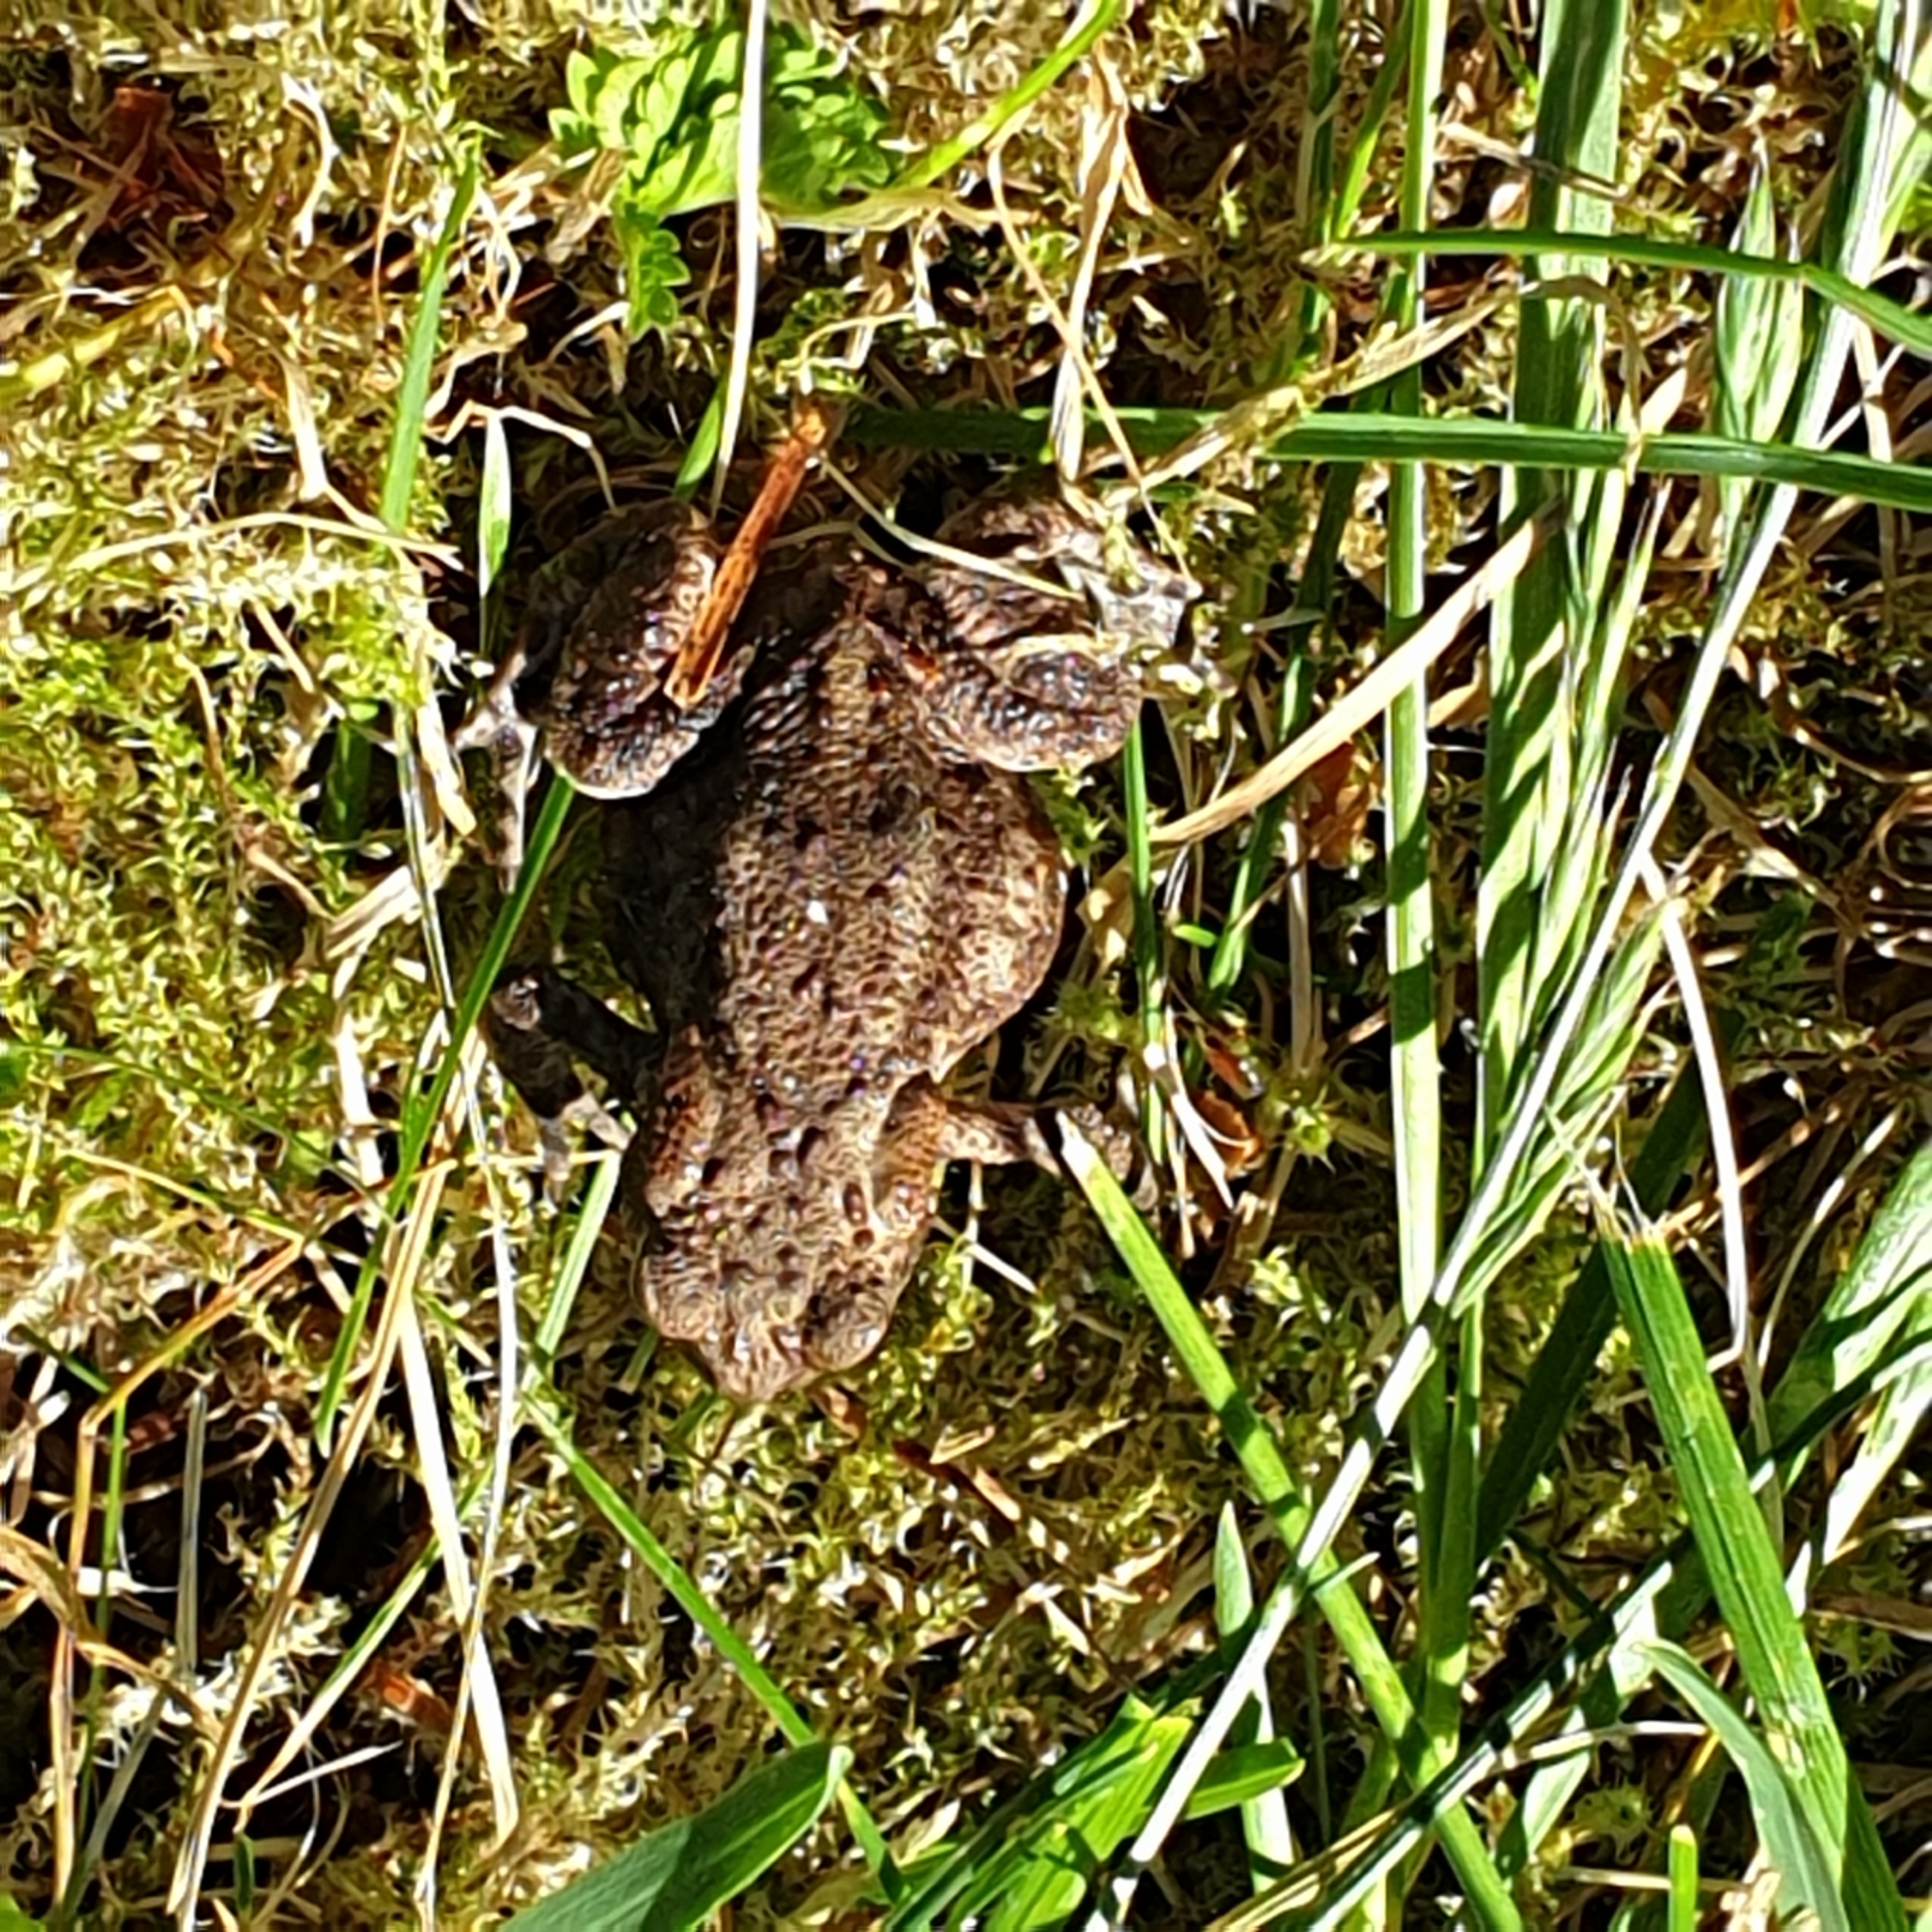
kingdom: Animalia
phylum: Chordata
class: Amphibia
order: Anura
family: Bufonidae
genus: Bufo
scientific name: Bufo bufo
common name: Common toad
